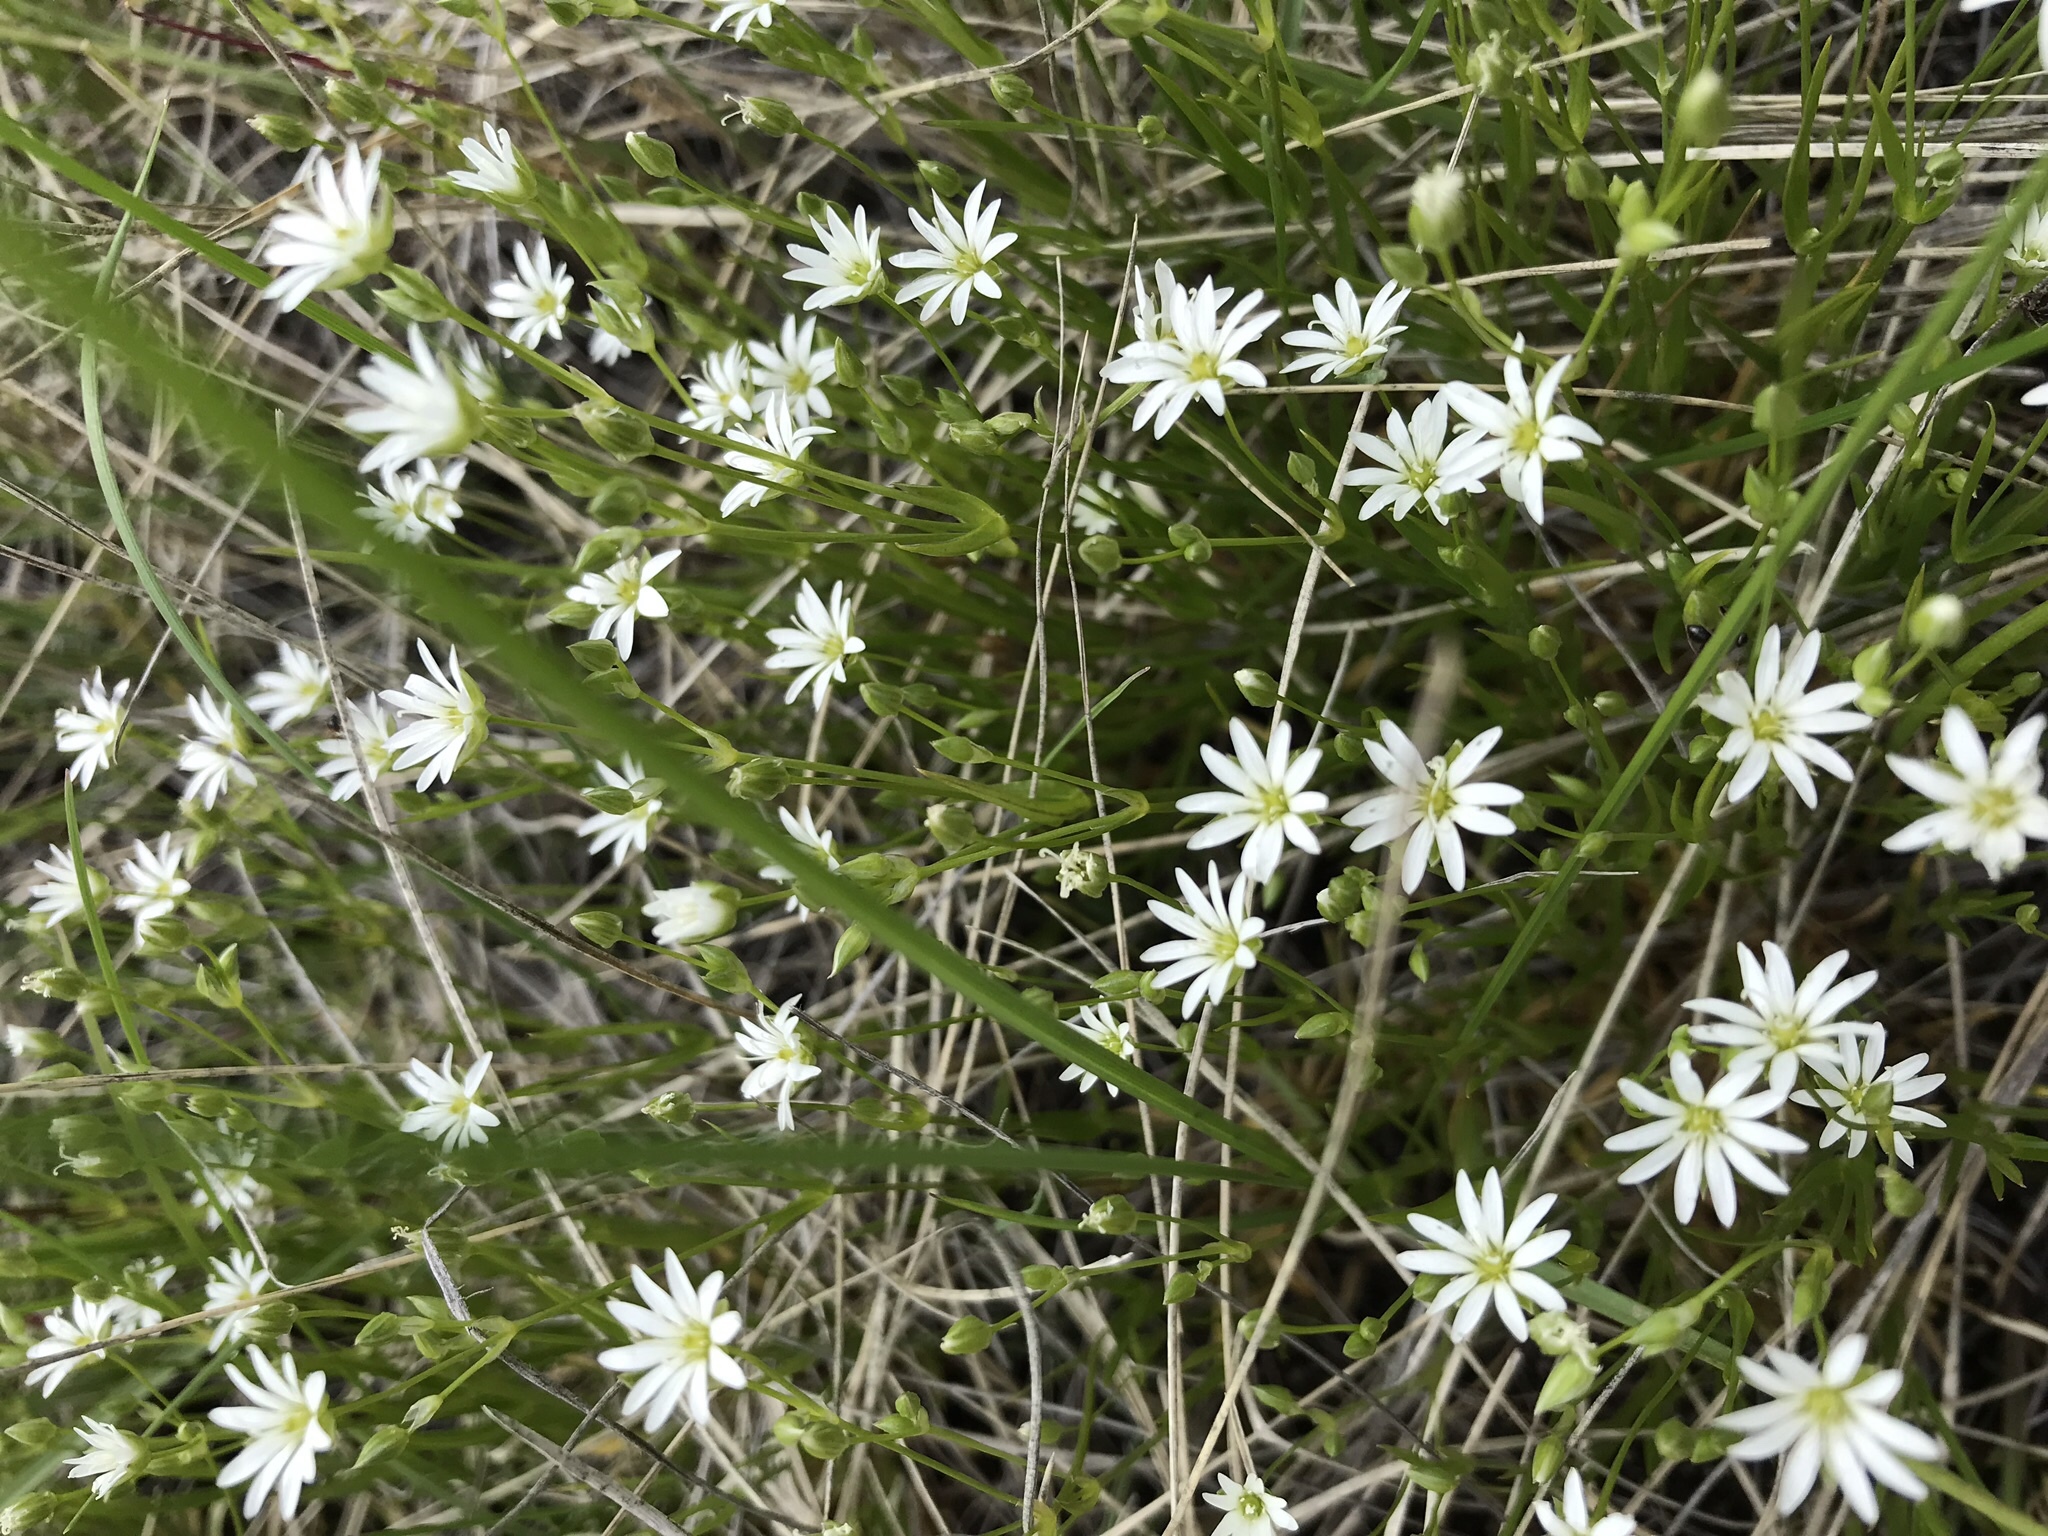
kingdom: Plantae
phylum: Tracheophyta
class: Magnoliopsida
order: Caryophyllales
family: Caryophyllaceae
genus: Stellaria
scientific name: Stellaria longifolia
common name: Long-leaved chickweed
